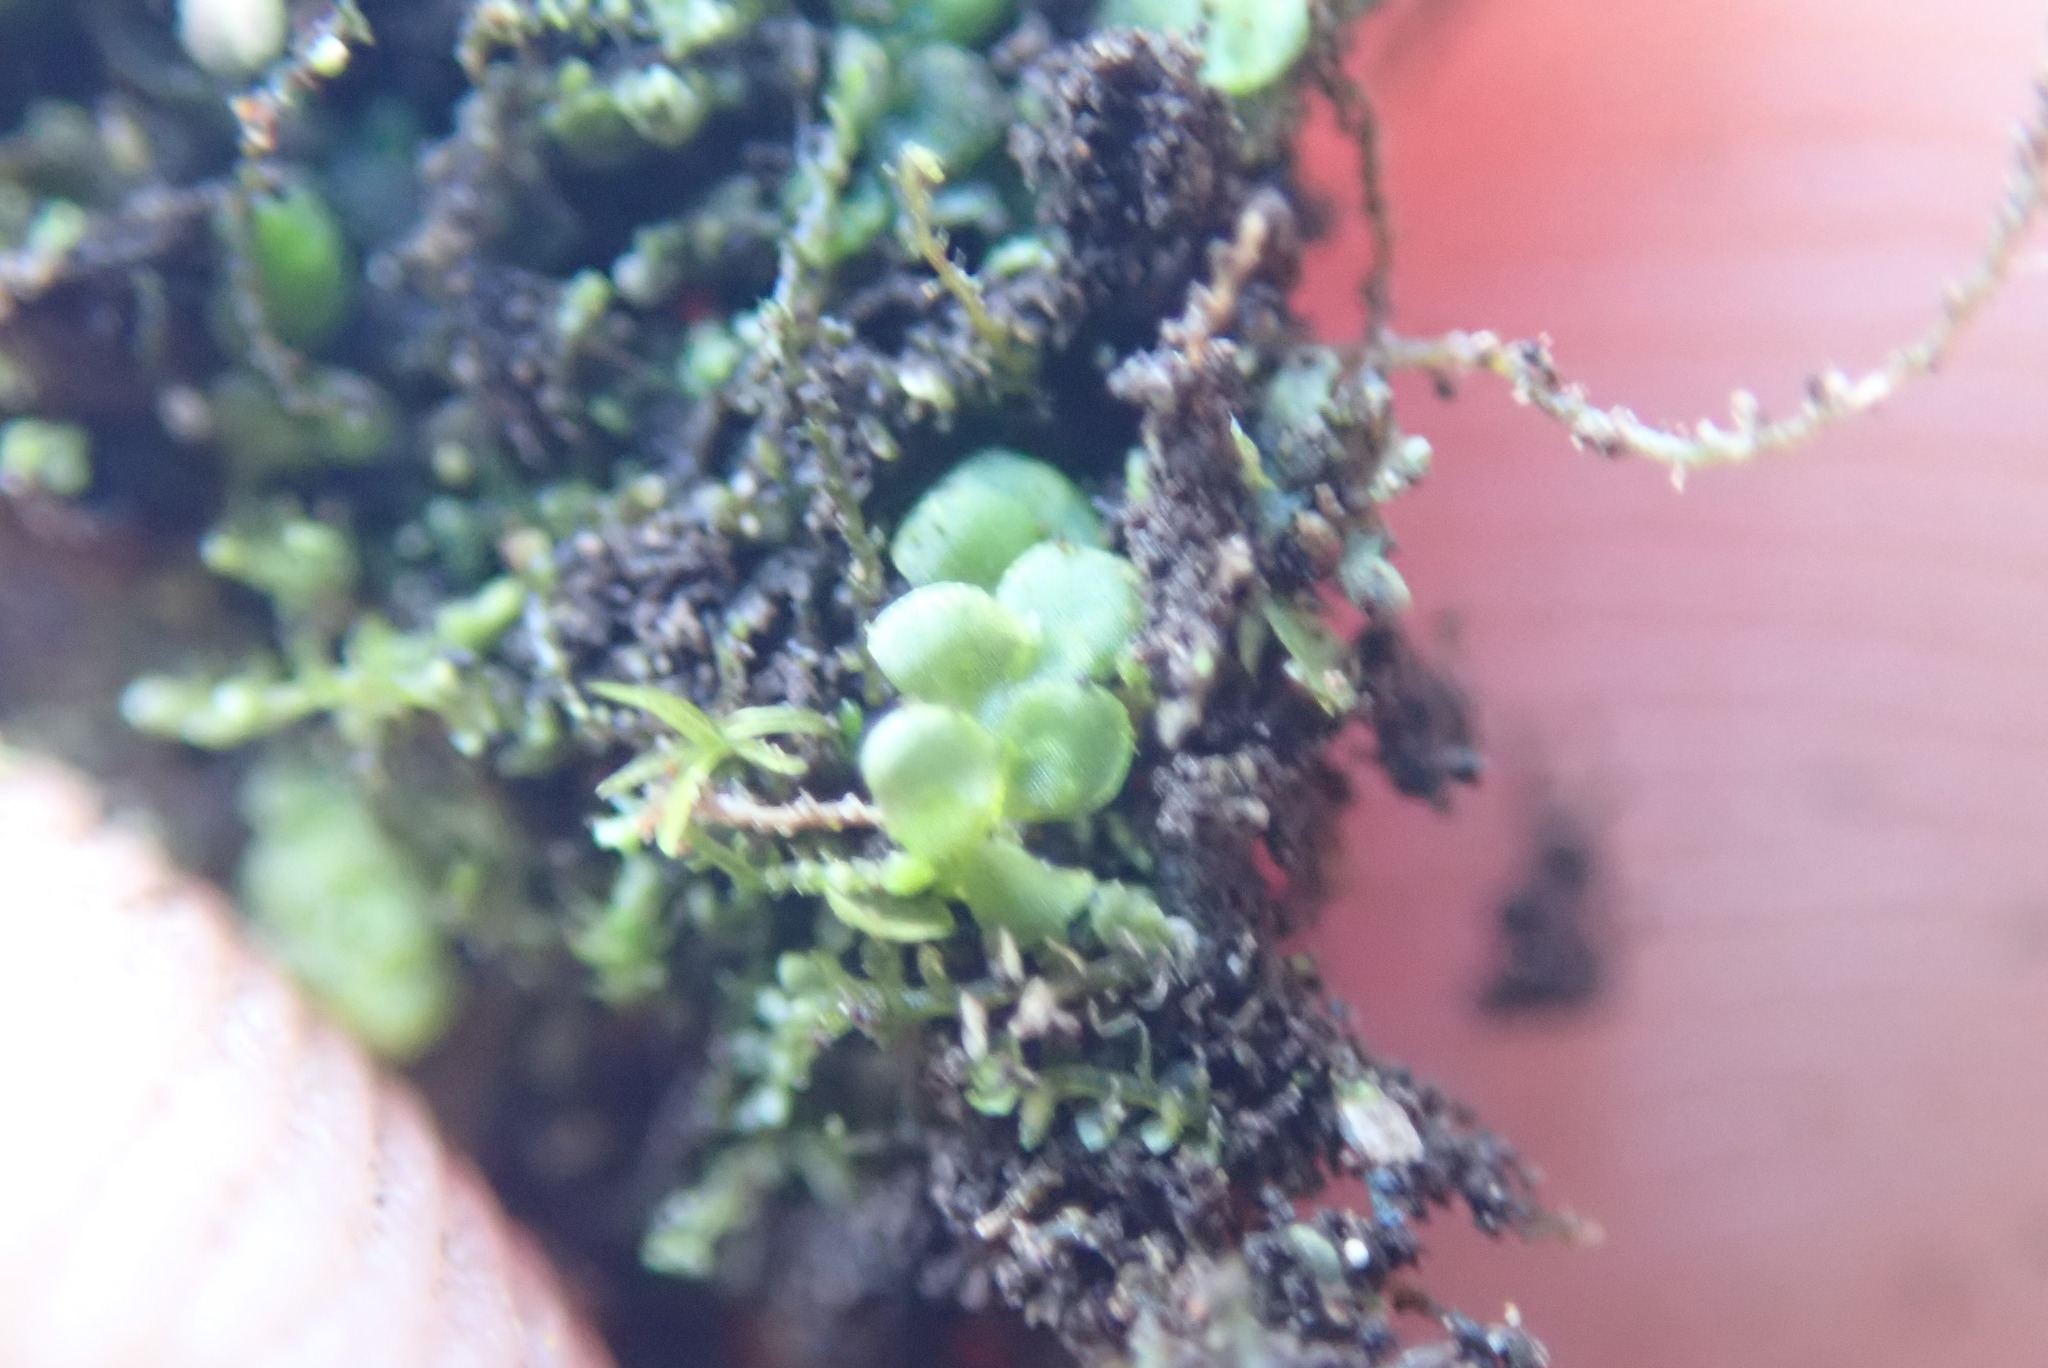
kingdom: Plantae
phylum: Marchantiophyta
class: Jungermanniopsida
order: Porellales
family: Radulaceae
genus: Radula
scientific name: Radula complanata
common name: Flat-leaved scalewort
